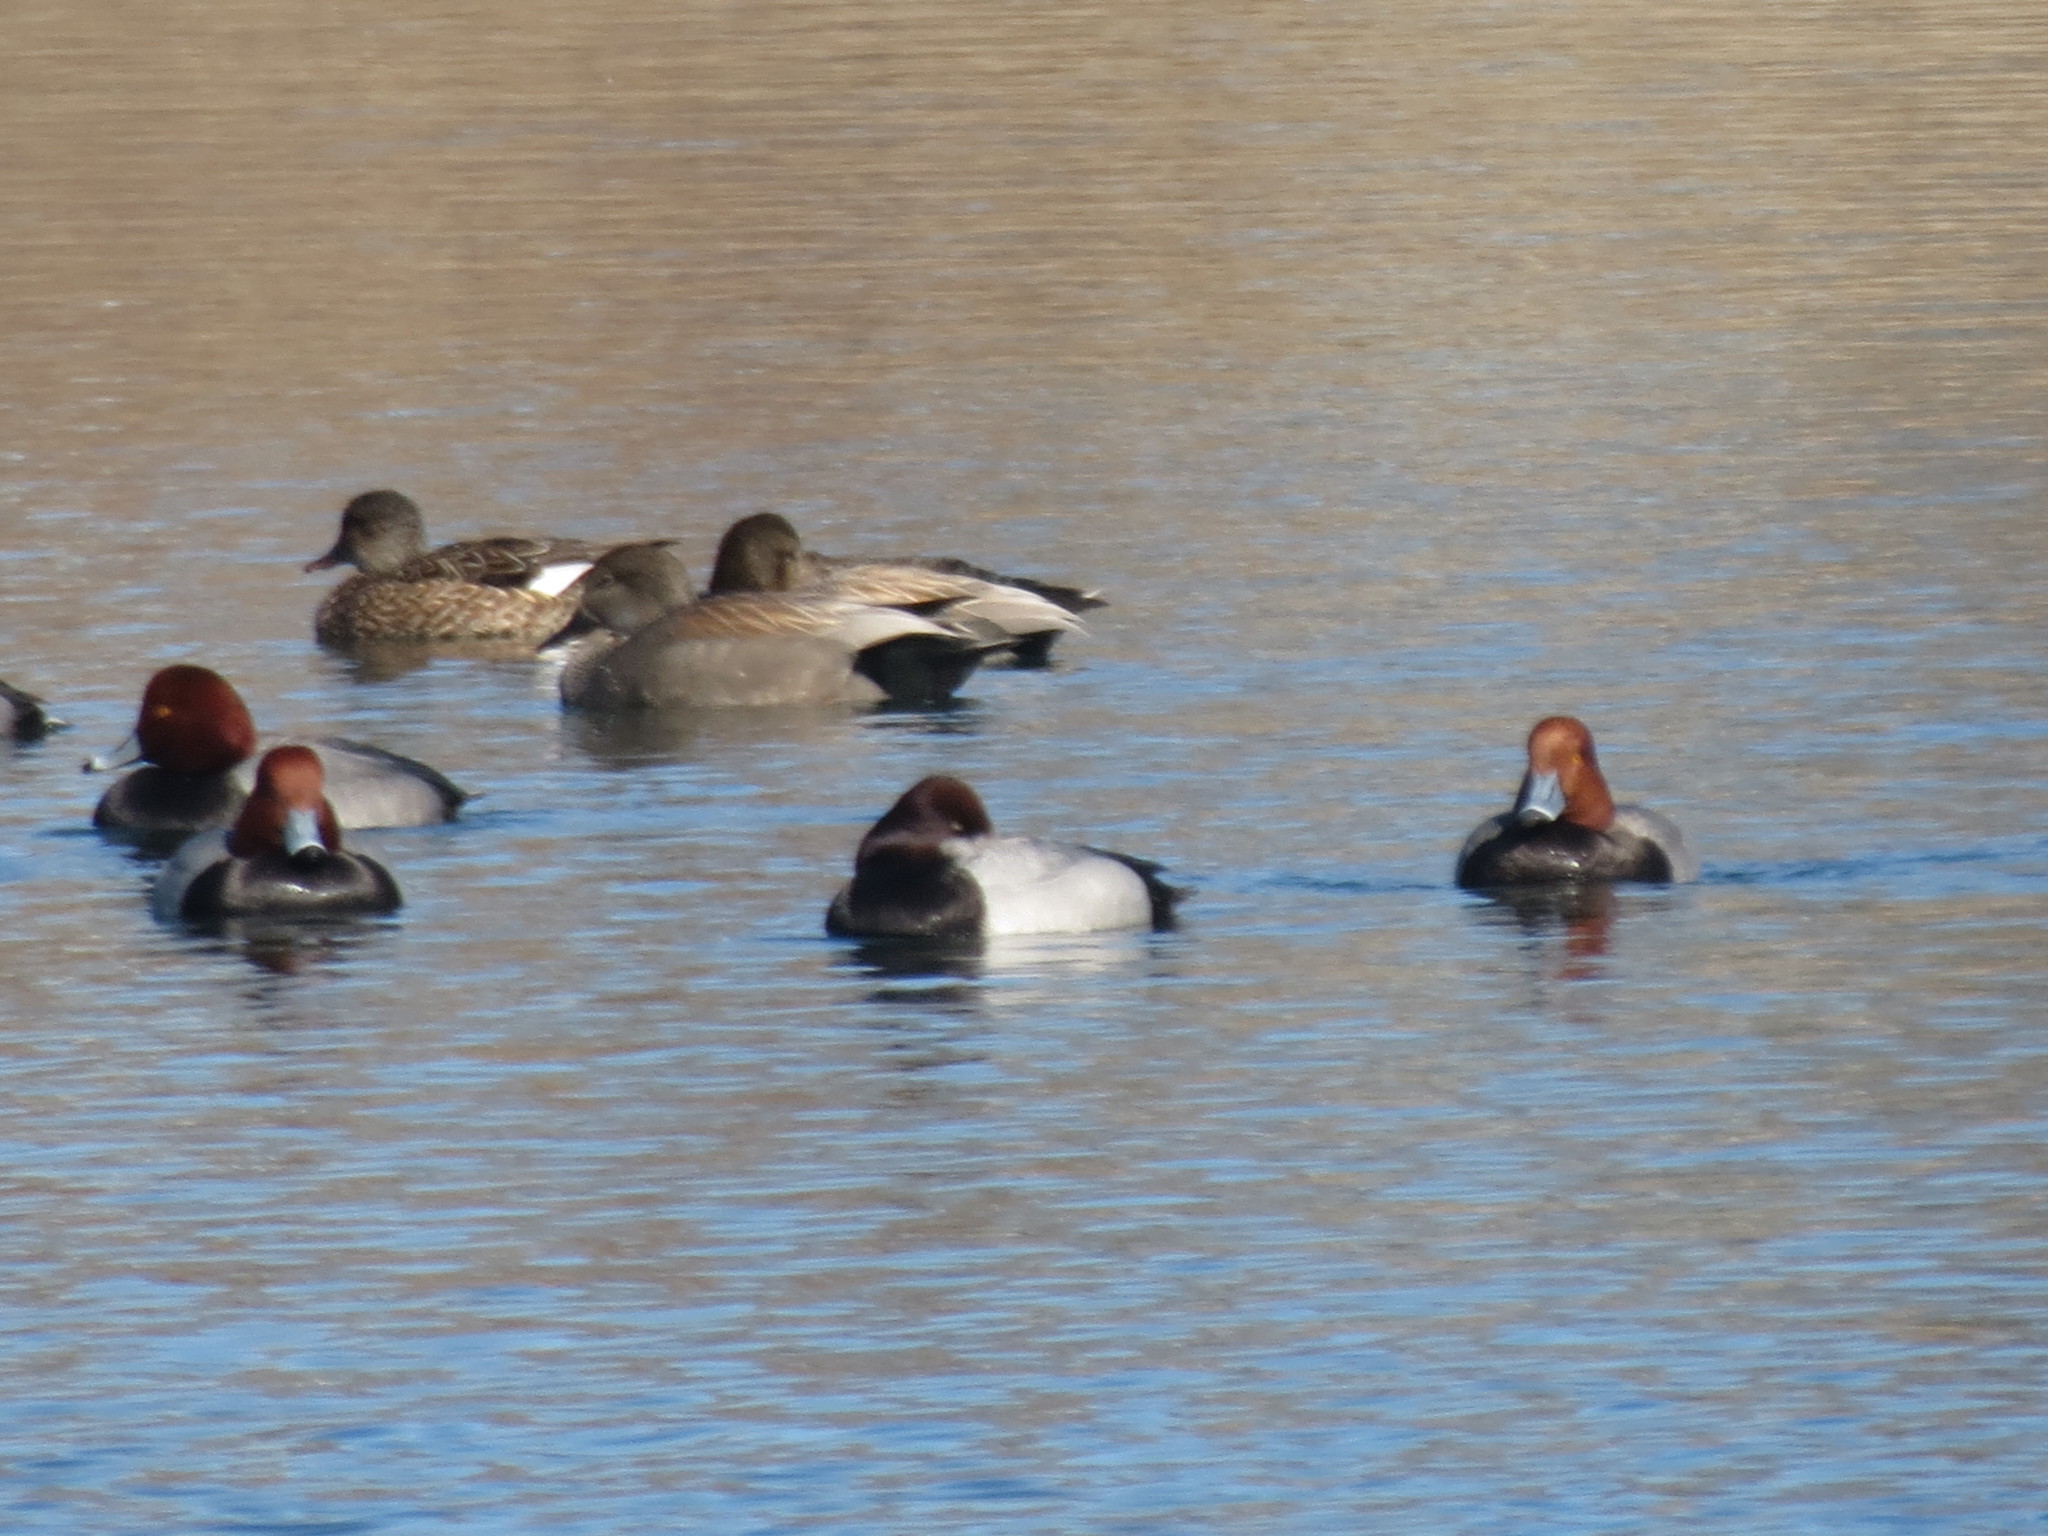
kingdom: Animalia
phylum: Chordata
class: Aves
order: Anseriformes
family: Anatidae
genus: Aythya
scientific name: Aythya
